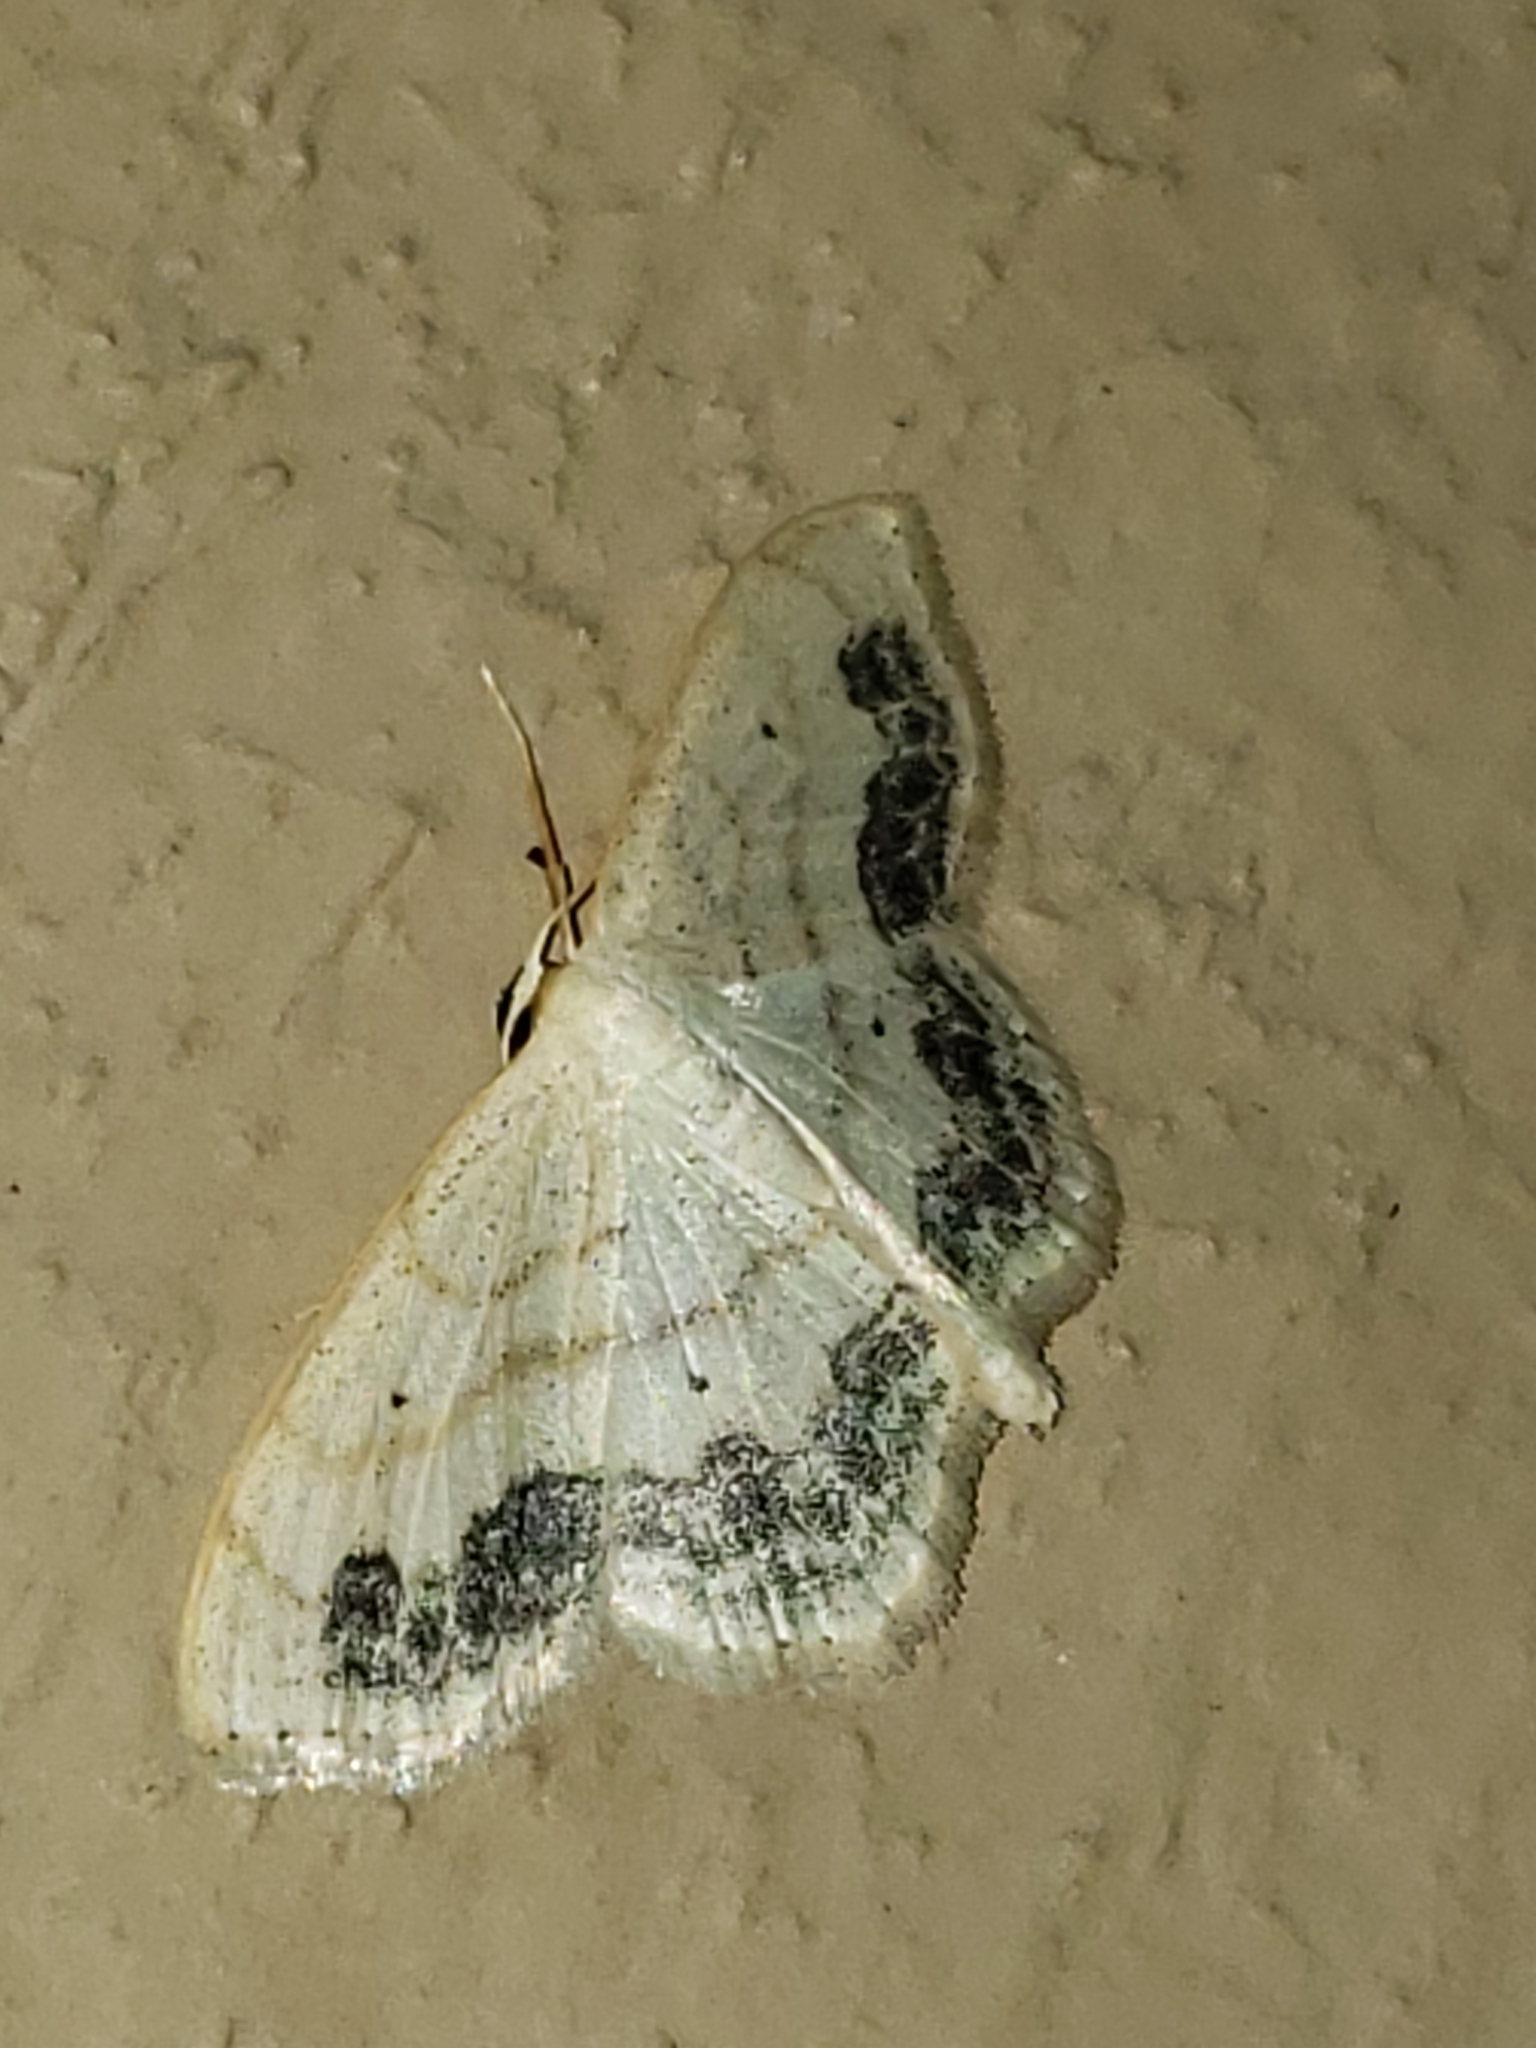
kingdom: Animalia
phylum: Arthropoda
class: Insecta
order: Lepidoptera
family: Geometridae
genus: Scopula
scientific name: Scopula limboundata
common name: Large lace border
